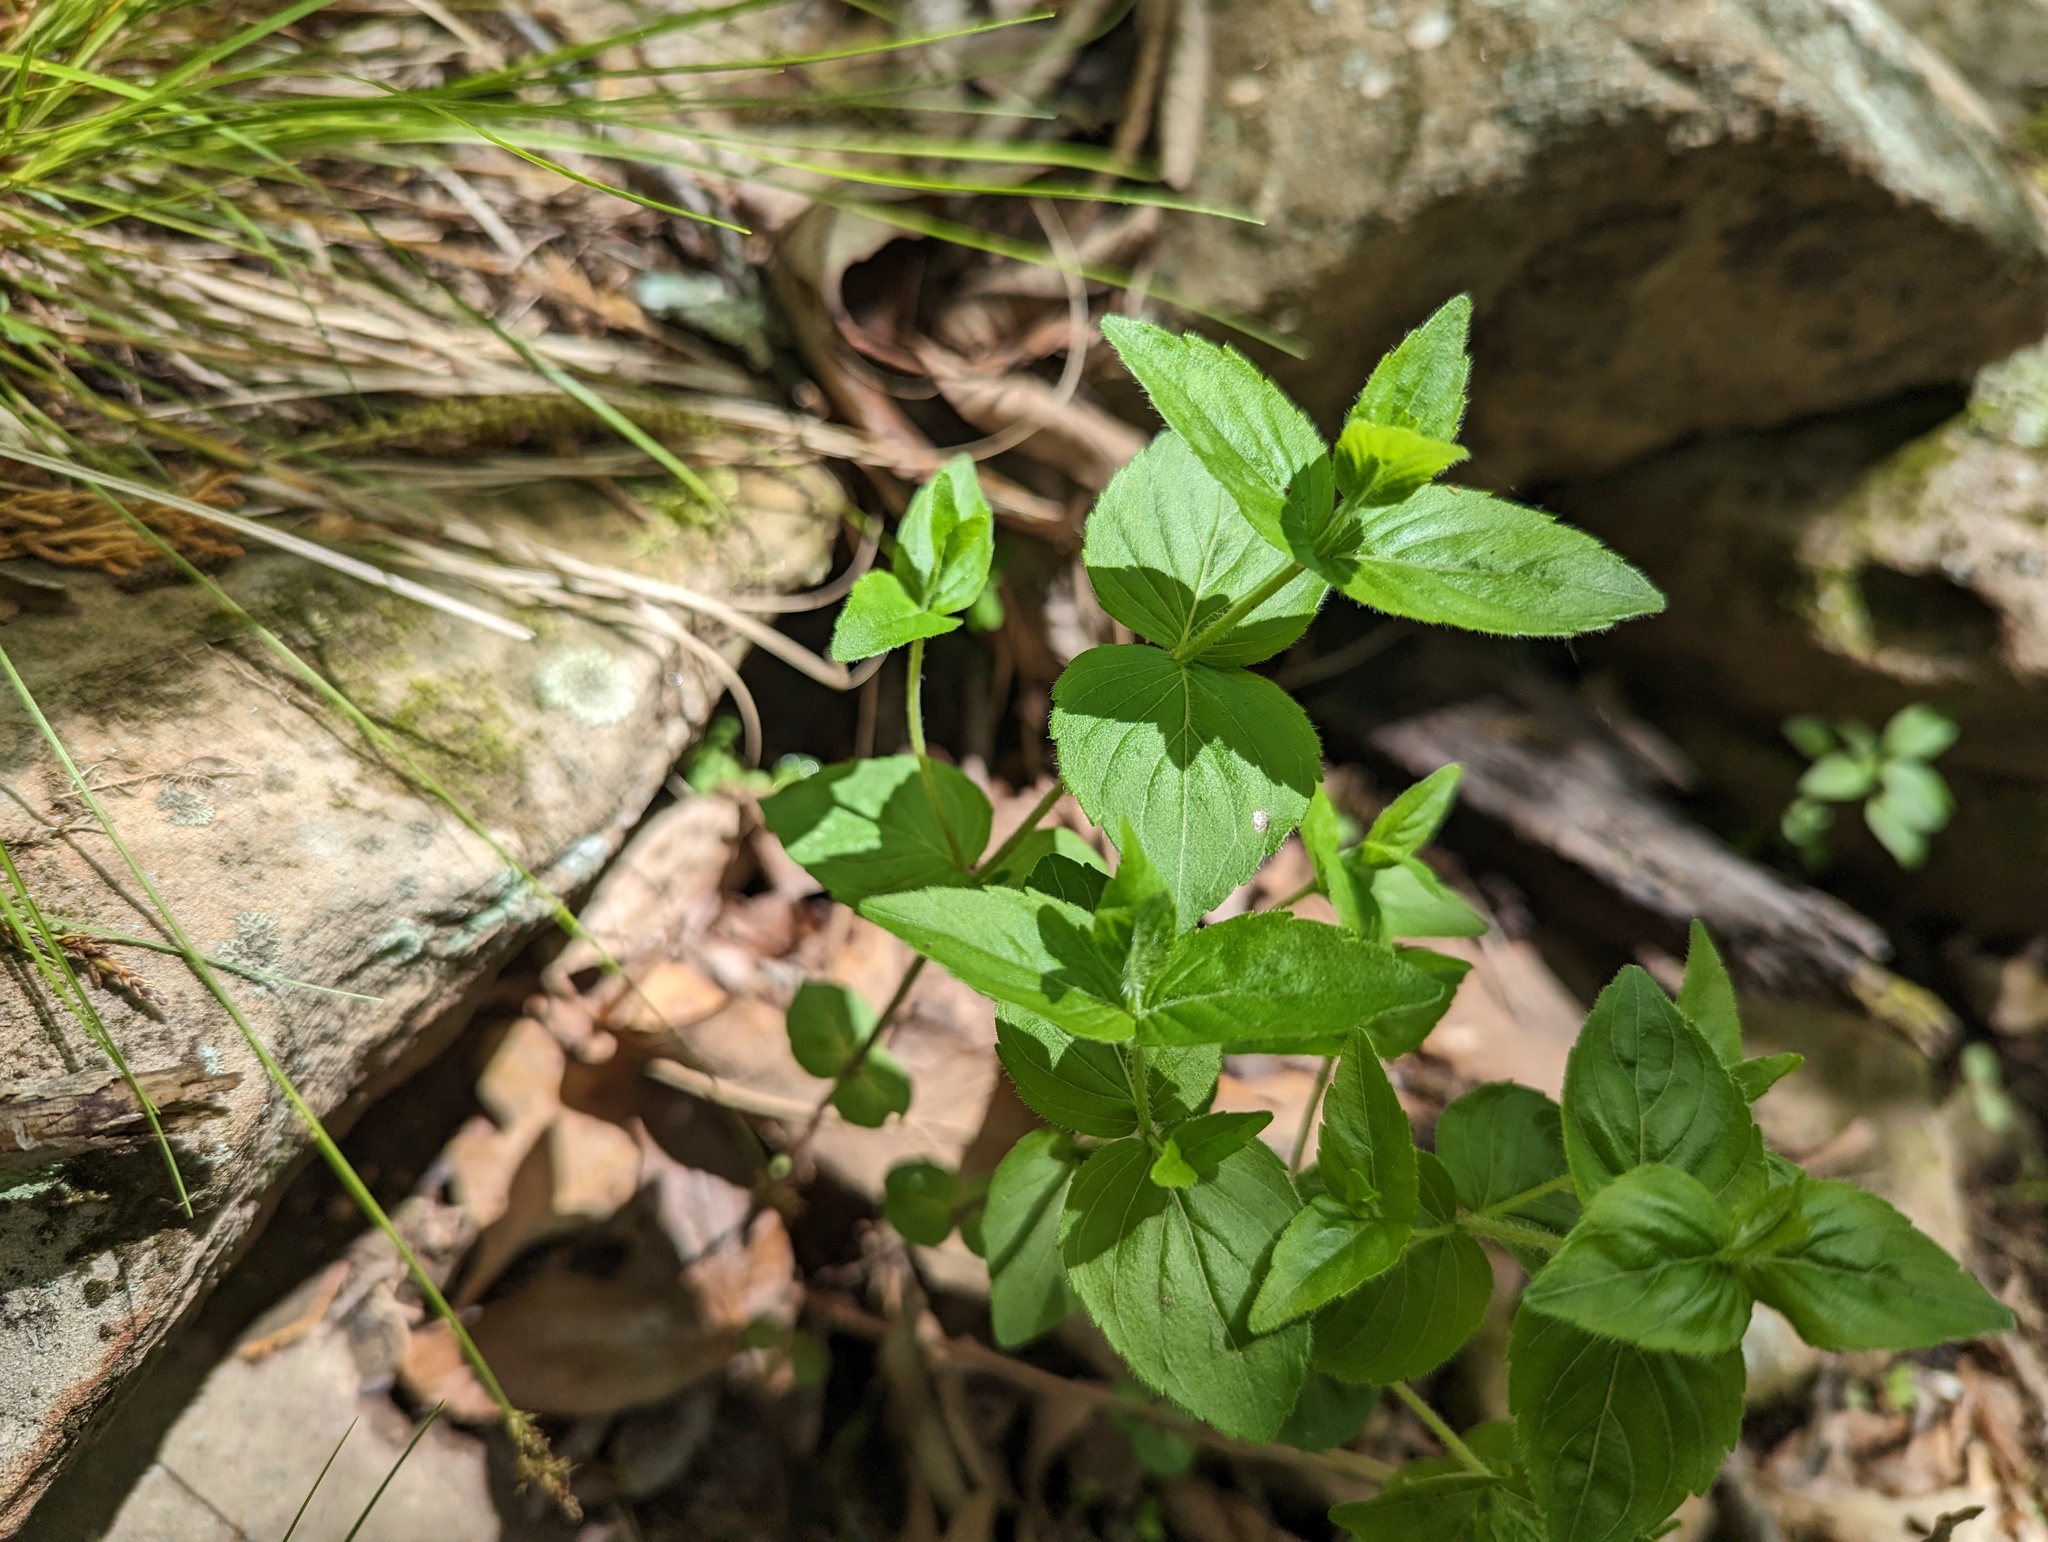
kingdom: Plantae
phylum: Tracheophyta
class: Magnoliopsida
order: Lamiales
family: Lamiaceae
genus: Cunila
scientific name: Cunila origanoides
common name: American dittany
